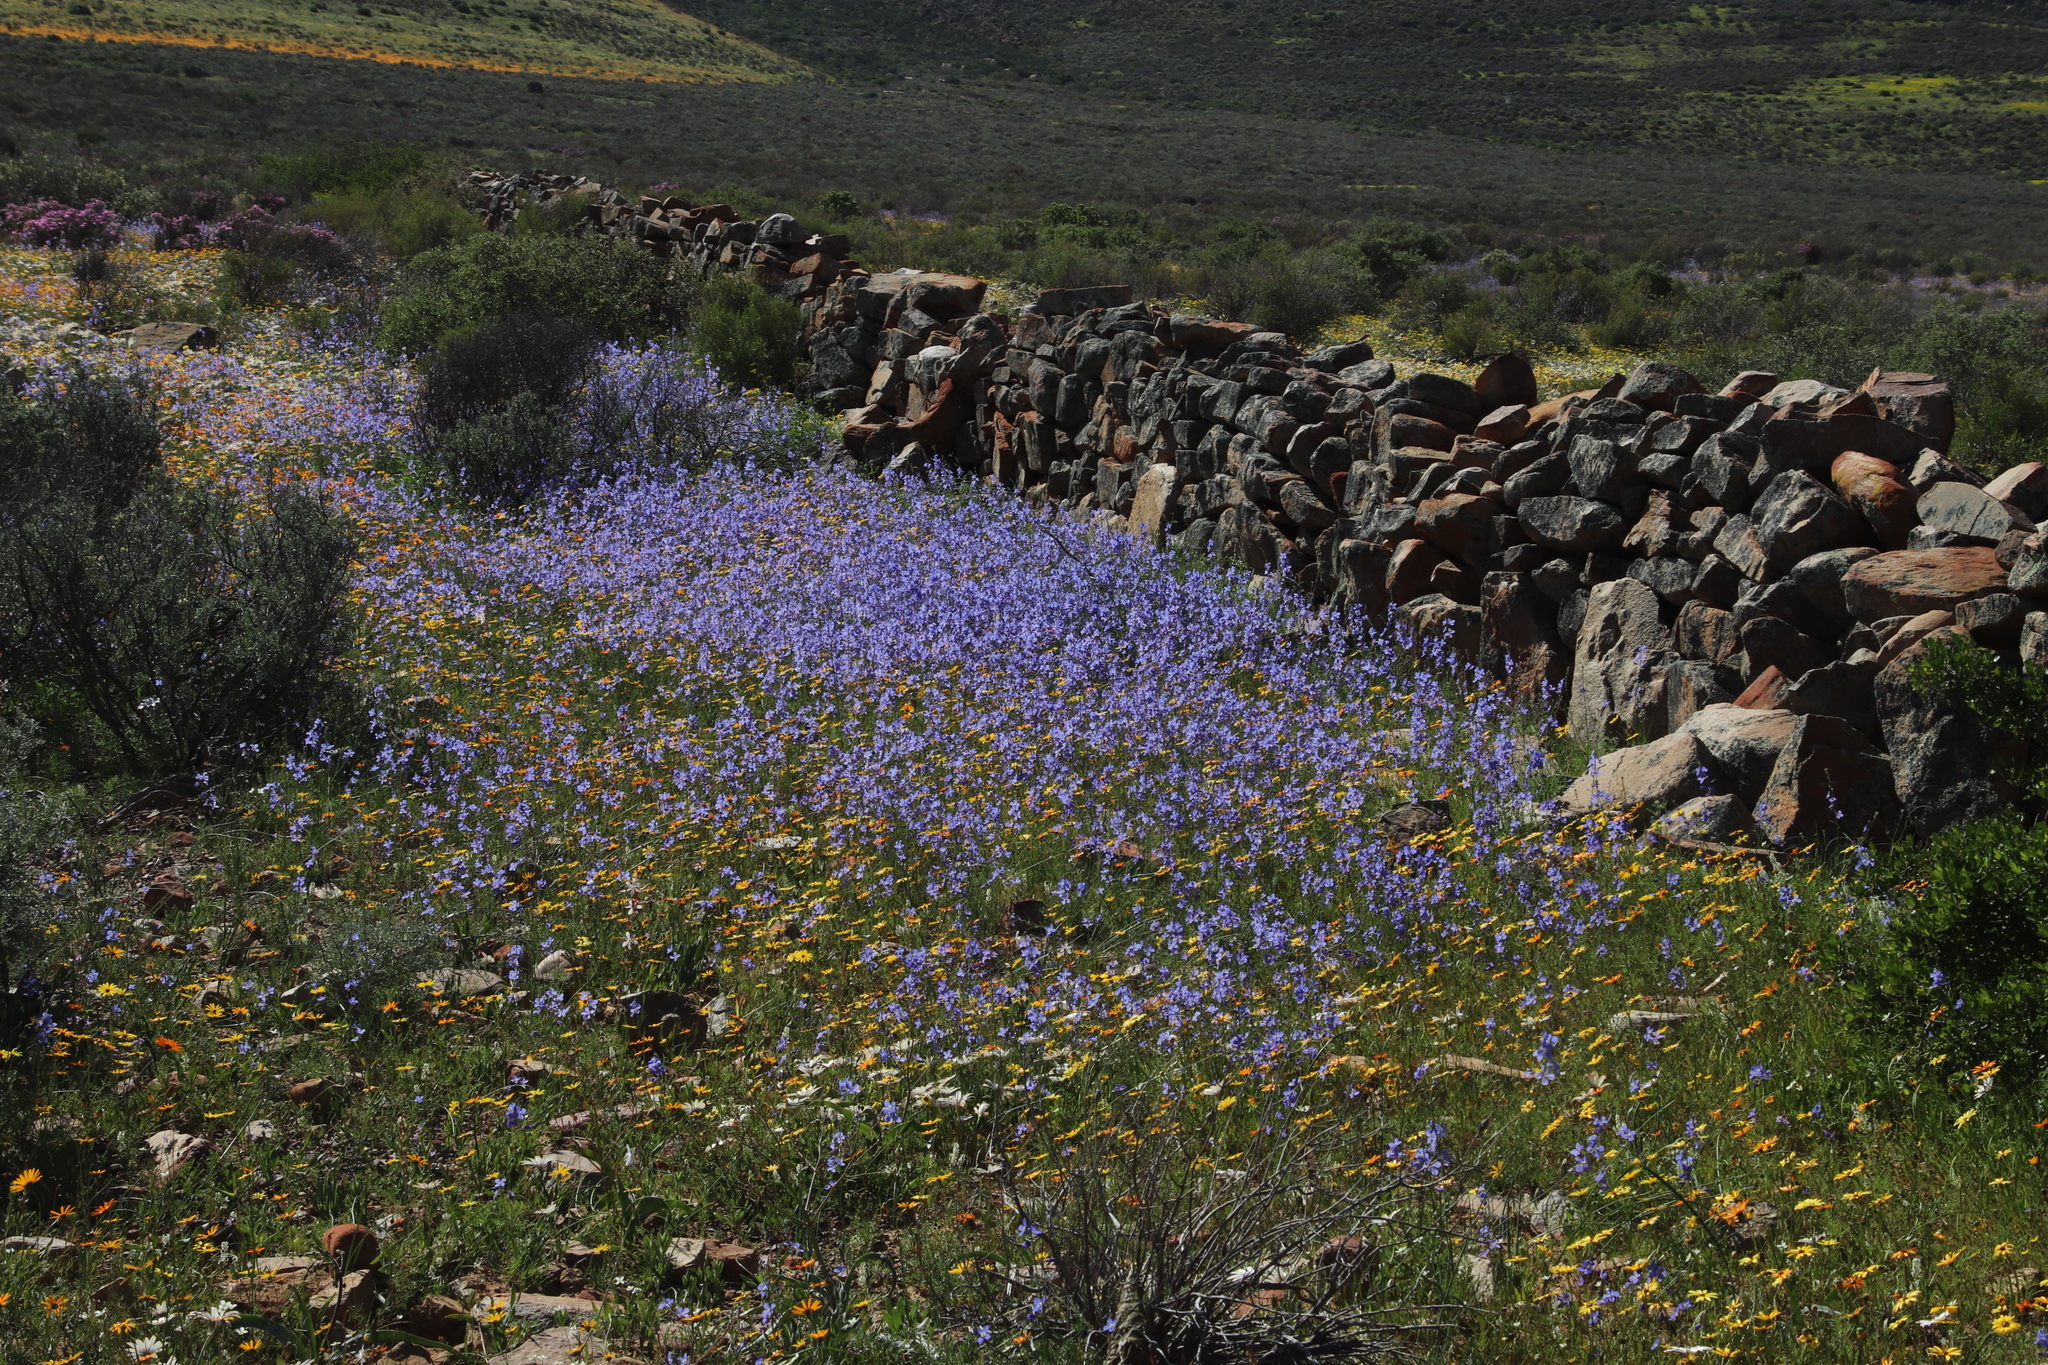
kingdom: Plantae
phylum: Tracheophyta
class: Magnoliopsida
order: Brassicales
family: Brassicaceae
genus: Heliophila
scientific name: Heliophila arenaria
